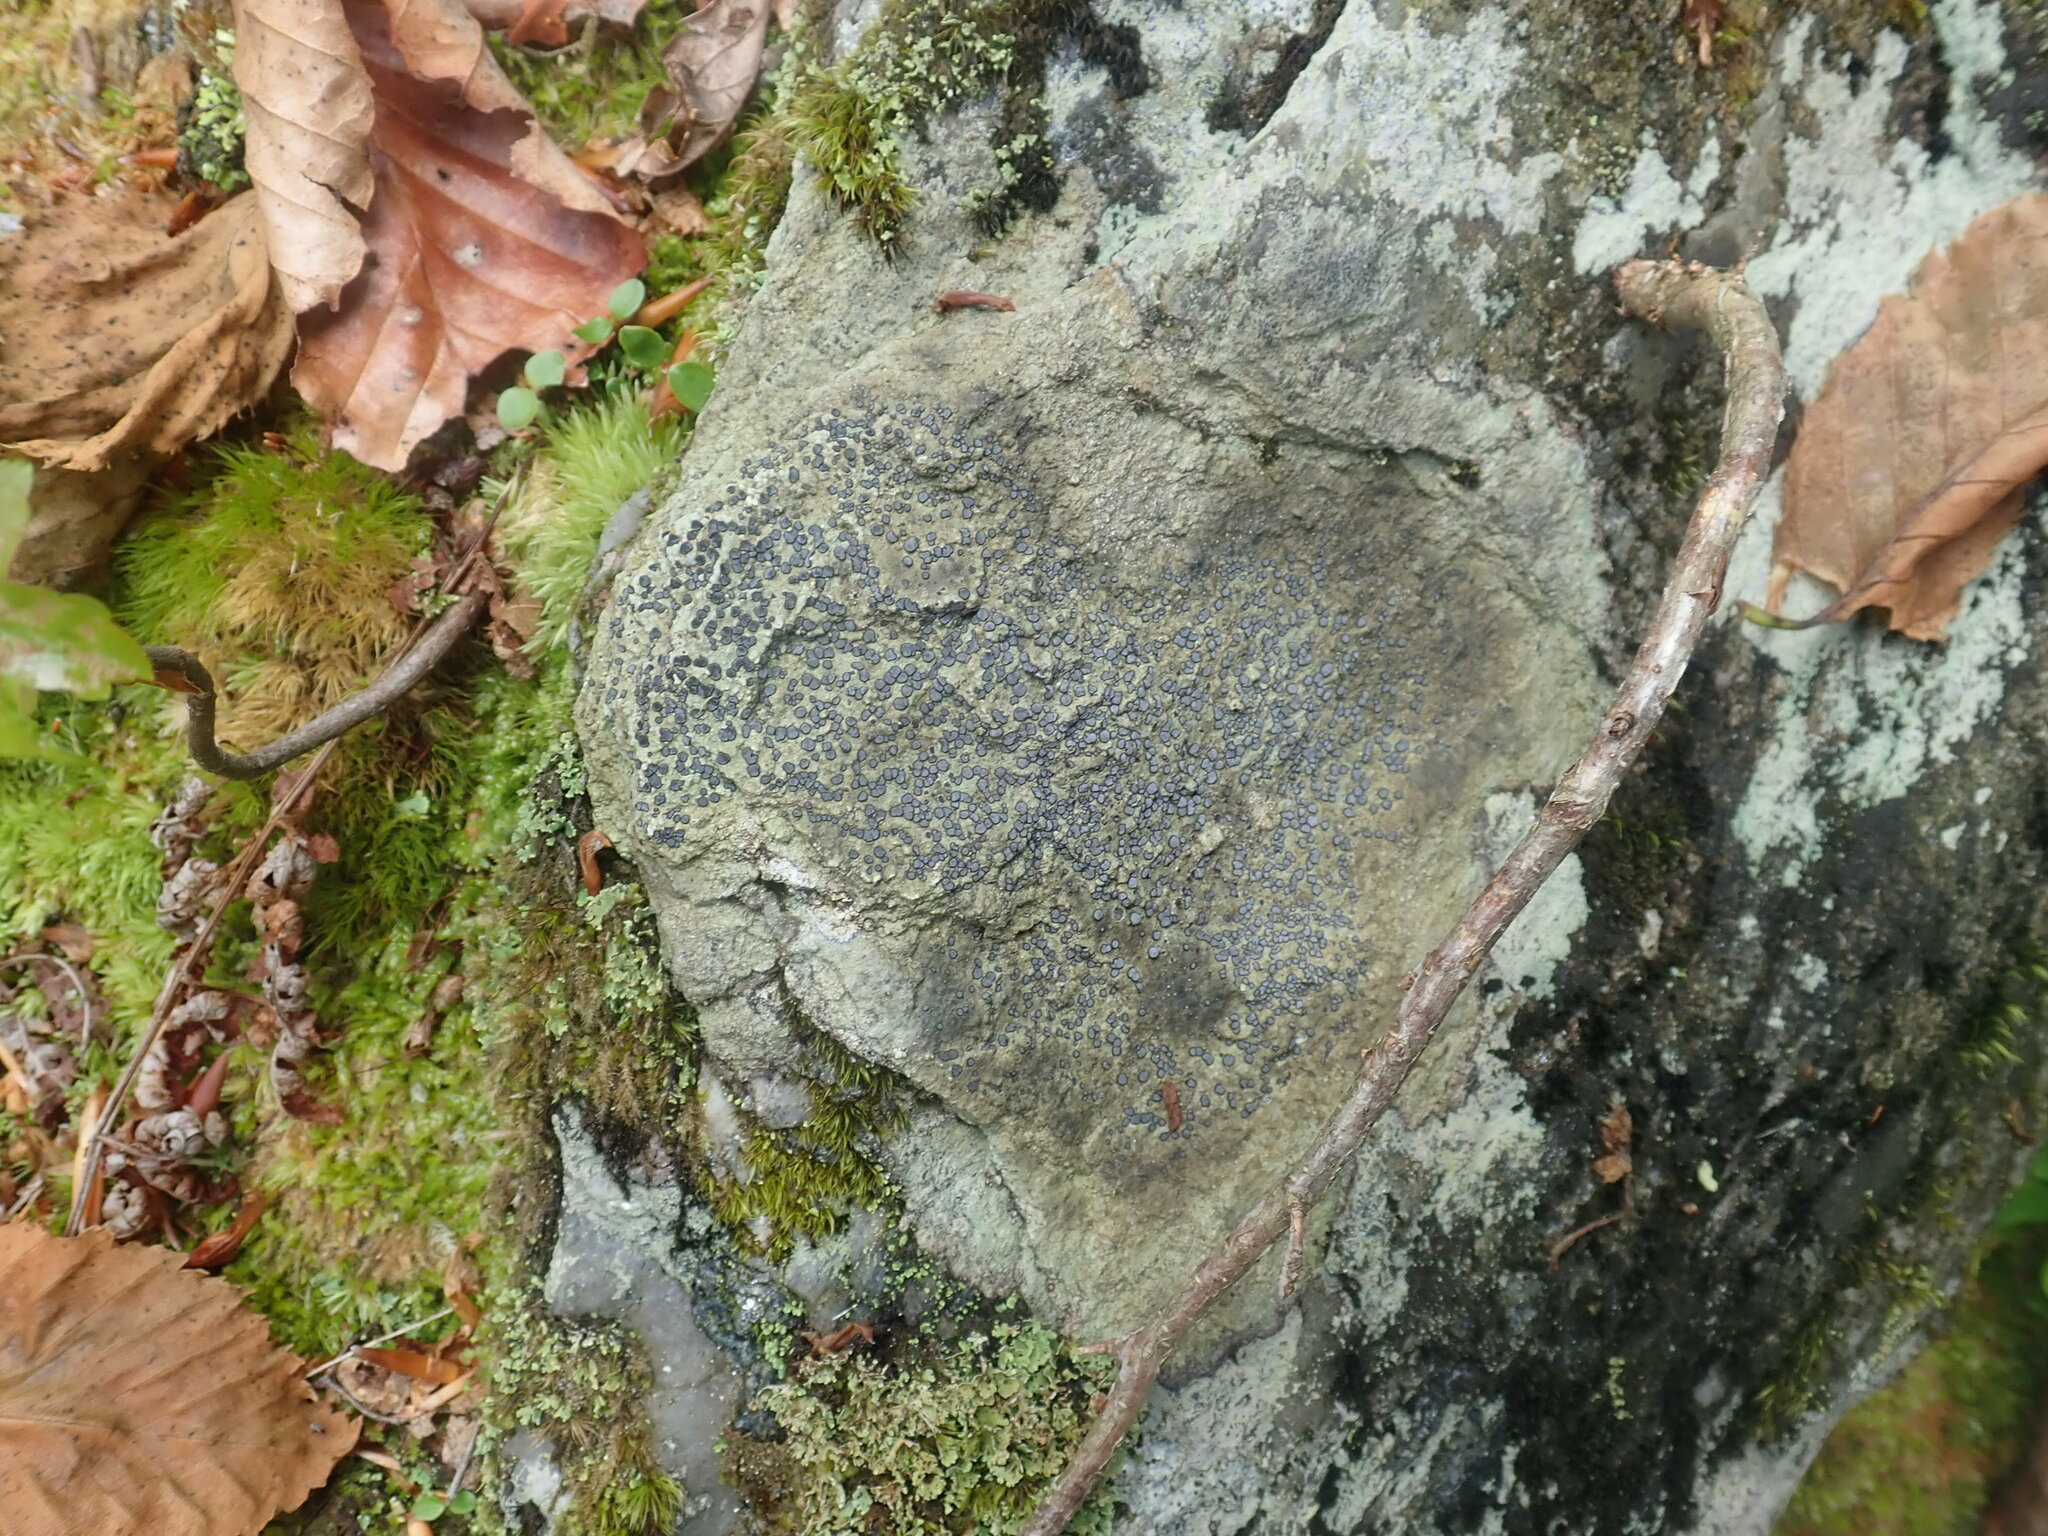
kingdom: Fungi
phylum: Ascomycota
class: Lecanoromycetes
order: Lecideales
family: Lecideaceae
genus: Porpidia
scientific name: Porpidia albocaerulescens
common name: Smokey-eyed boulder lichen
